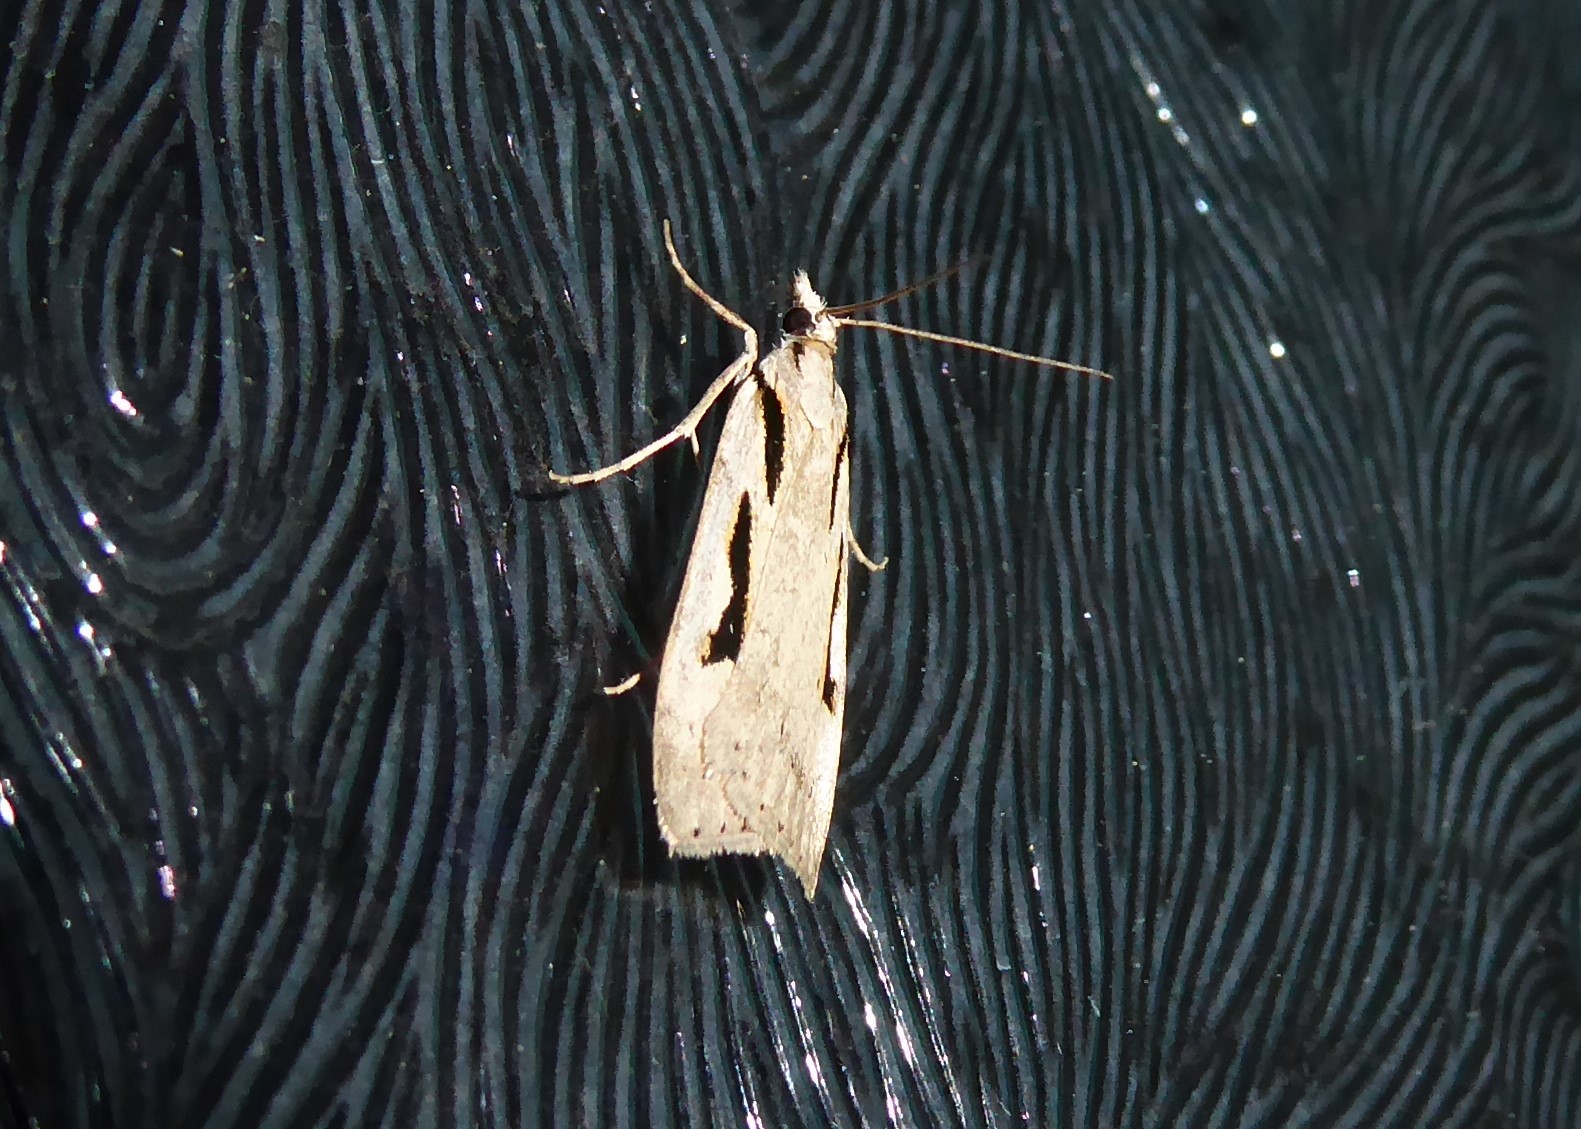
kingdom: Animalia
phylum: Arthropoda
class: Insecta
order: Lepidoptera
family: Crambidae
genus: Scoparia
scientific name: Scoparia rotuellus
